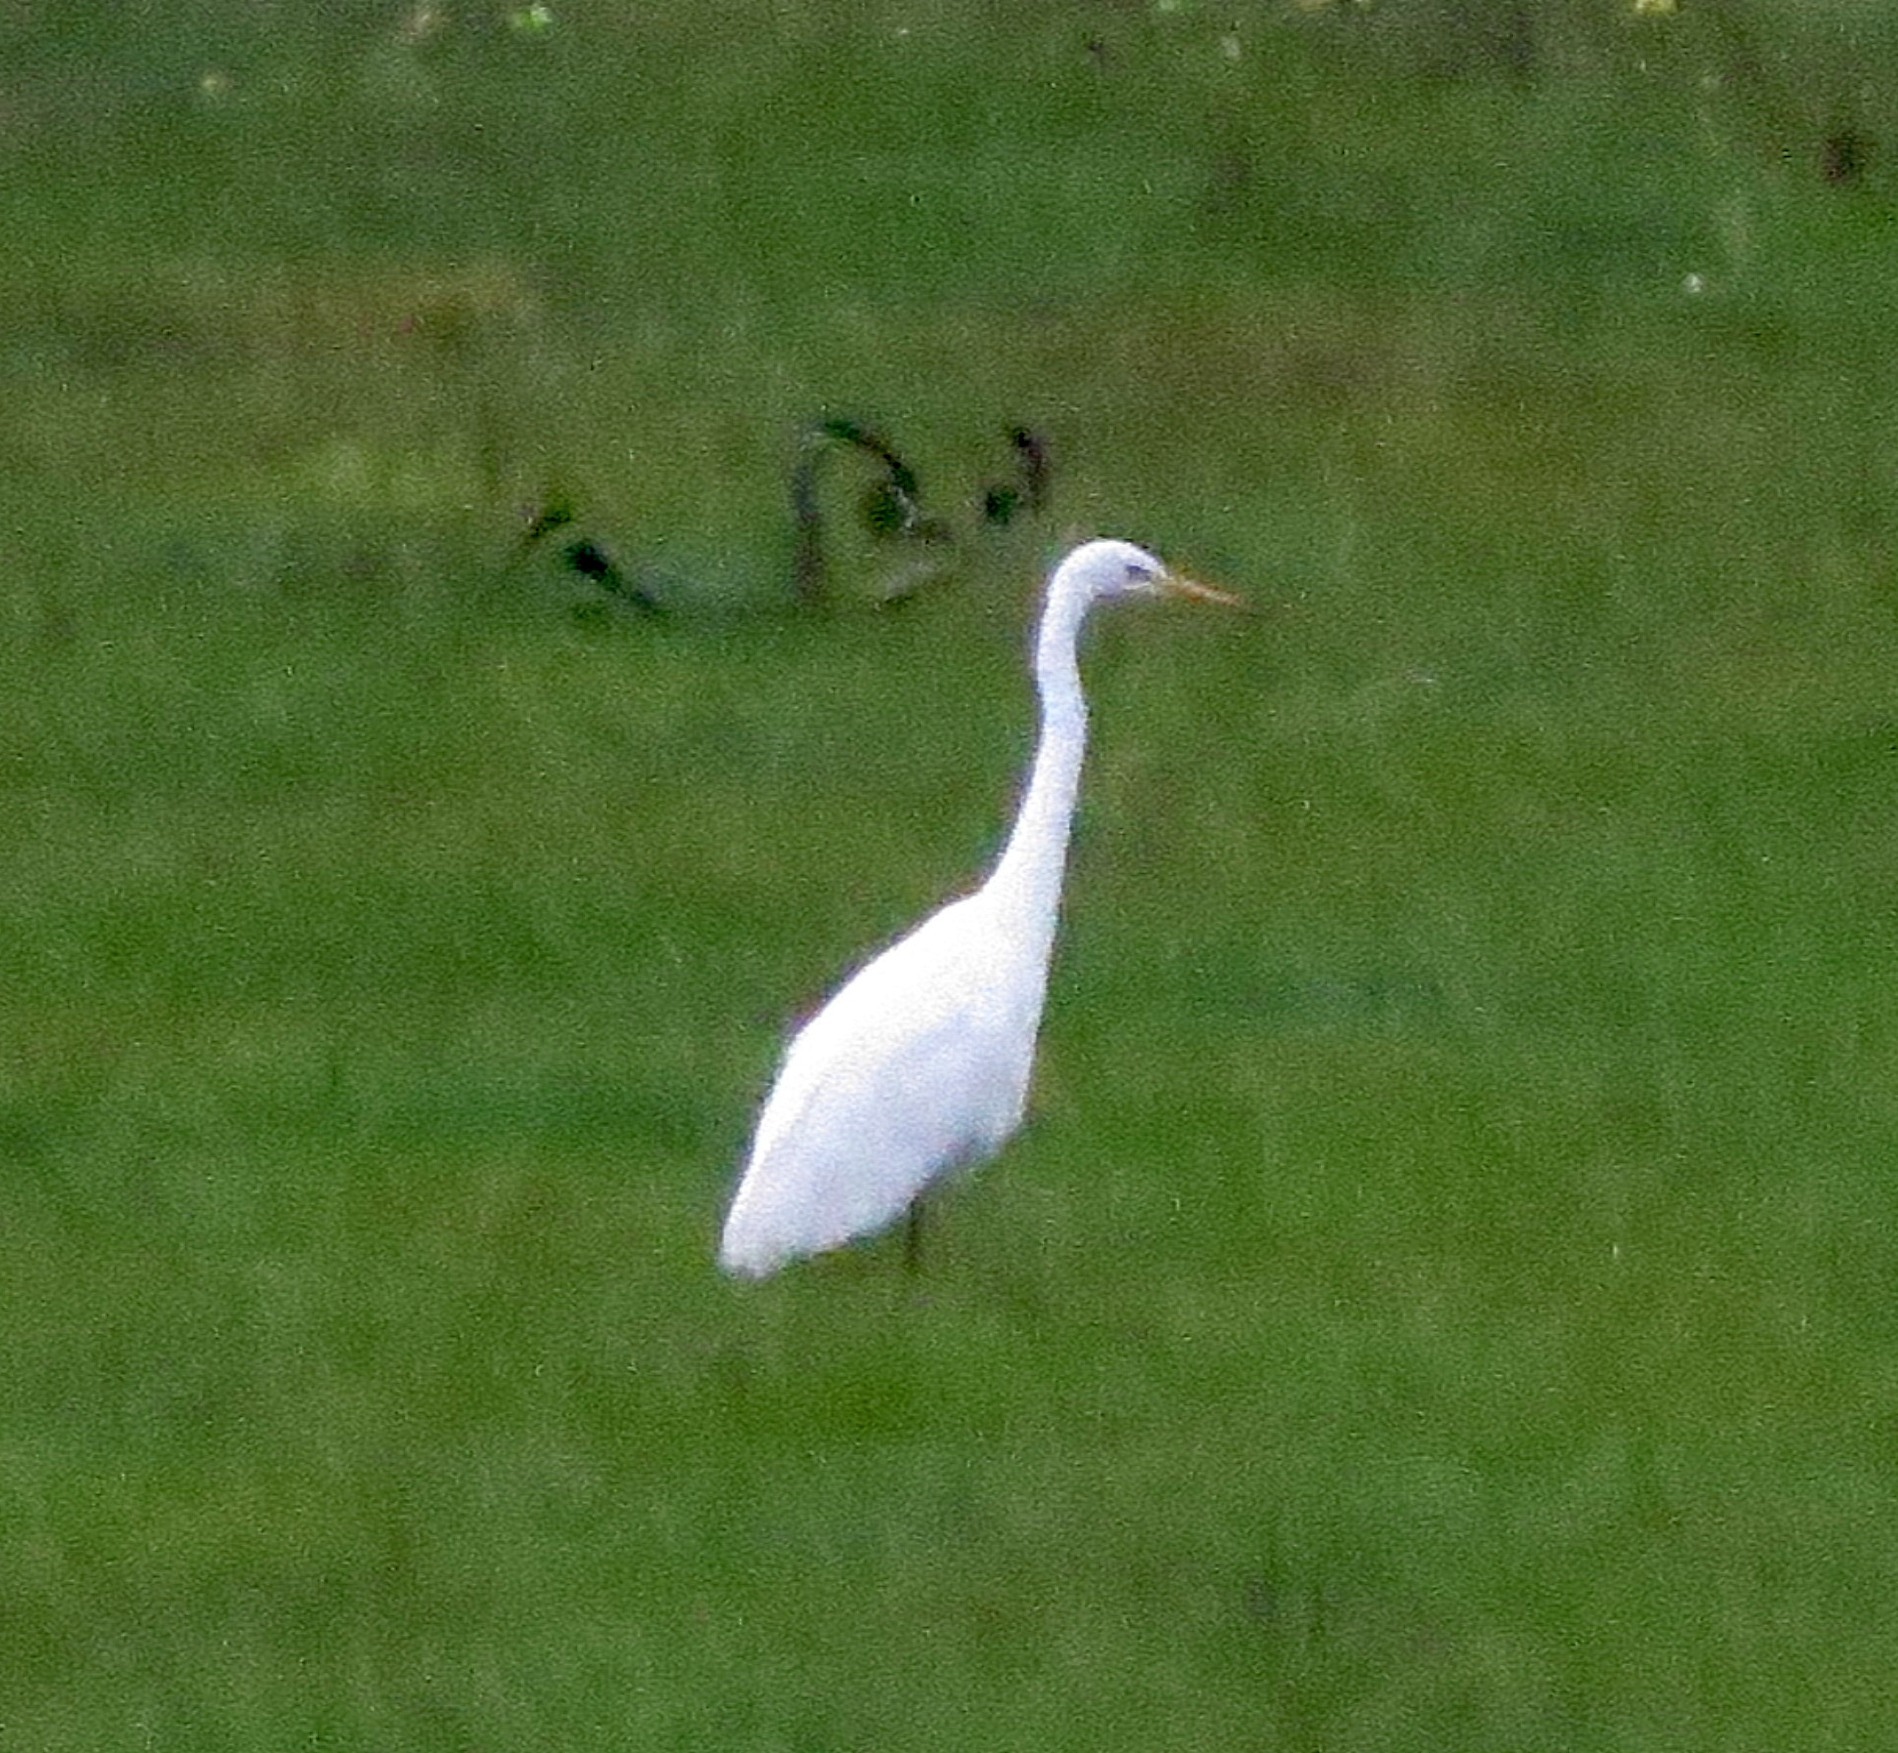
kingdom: Animalia
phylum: Chordata
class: Aves
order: Pelecaniformes
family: Ardeidae
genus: Ardea
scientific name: Ardea alba
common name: Great egret
